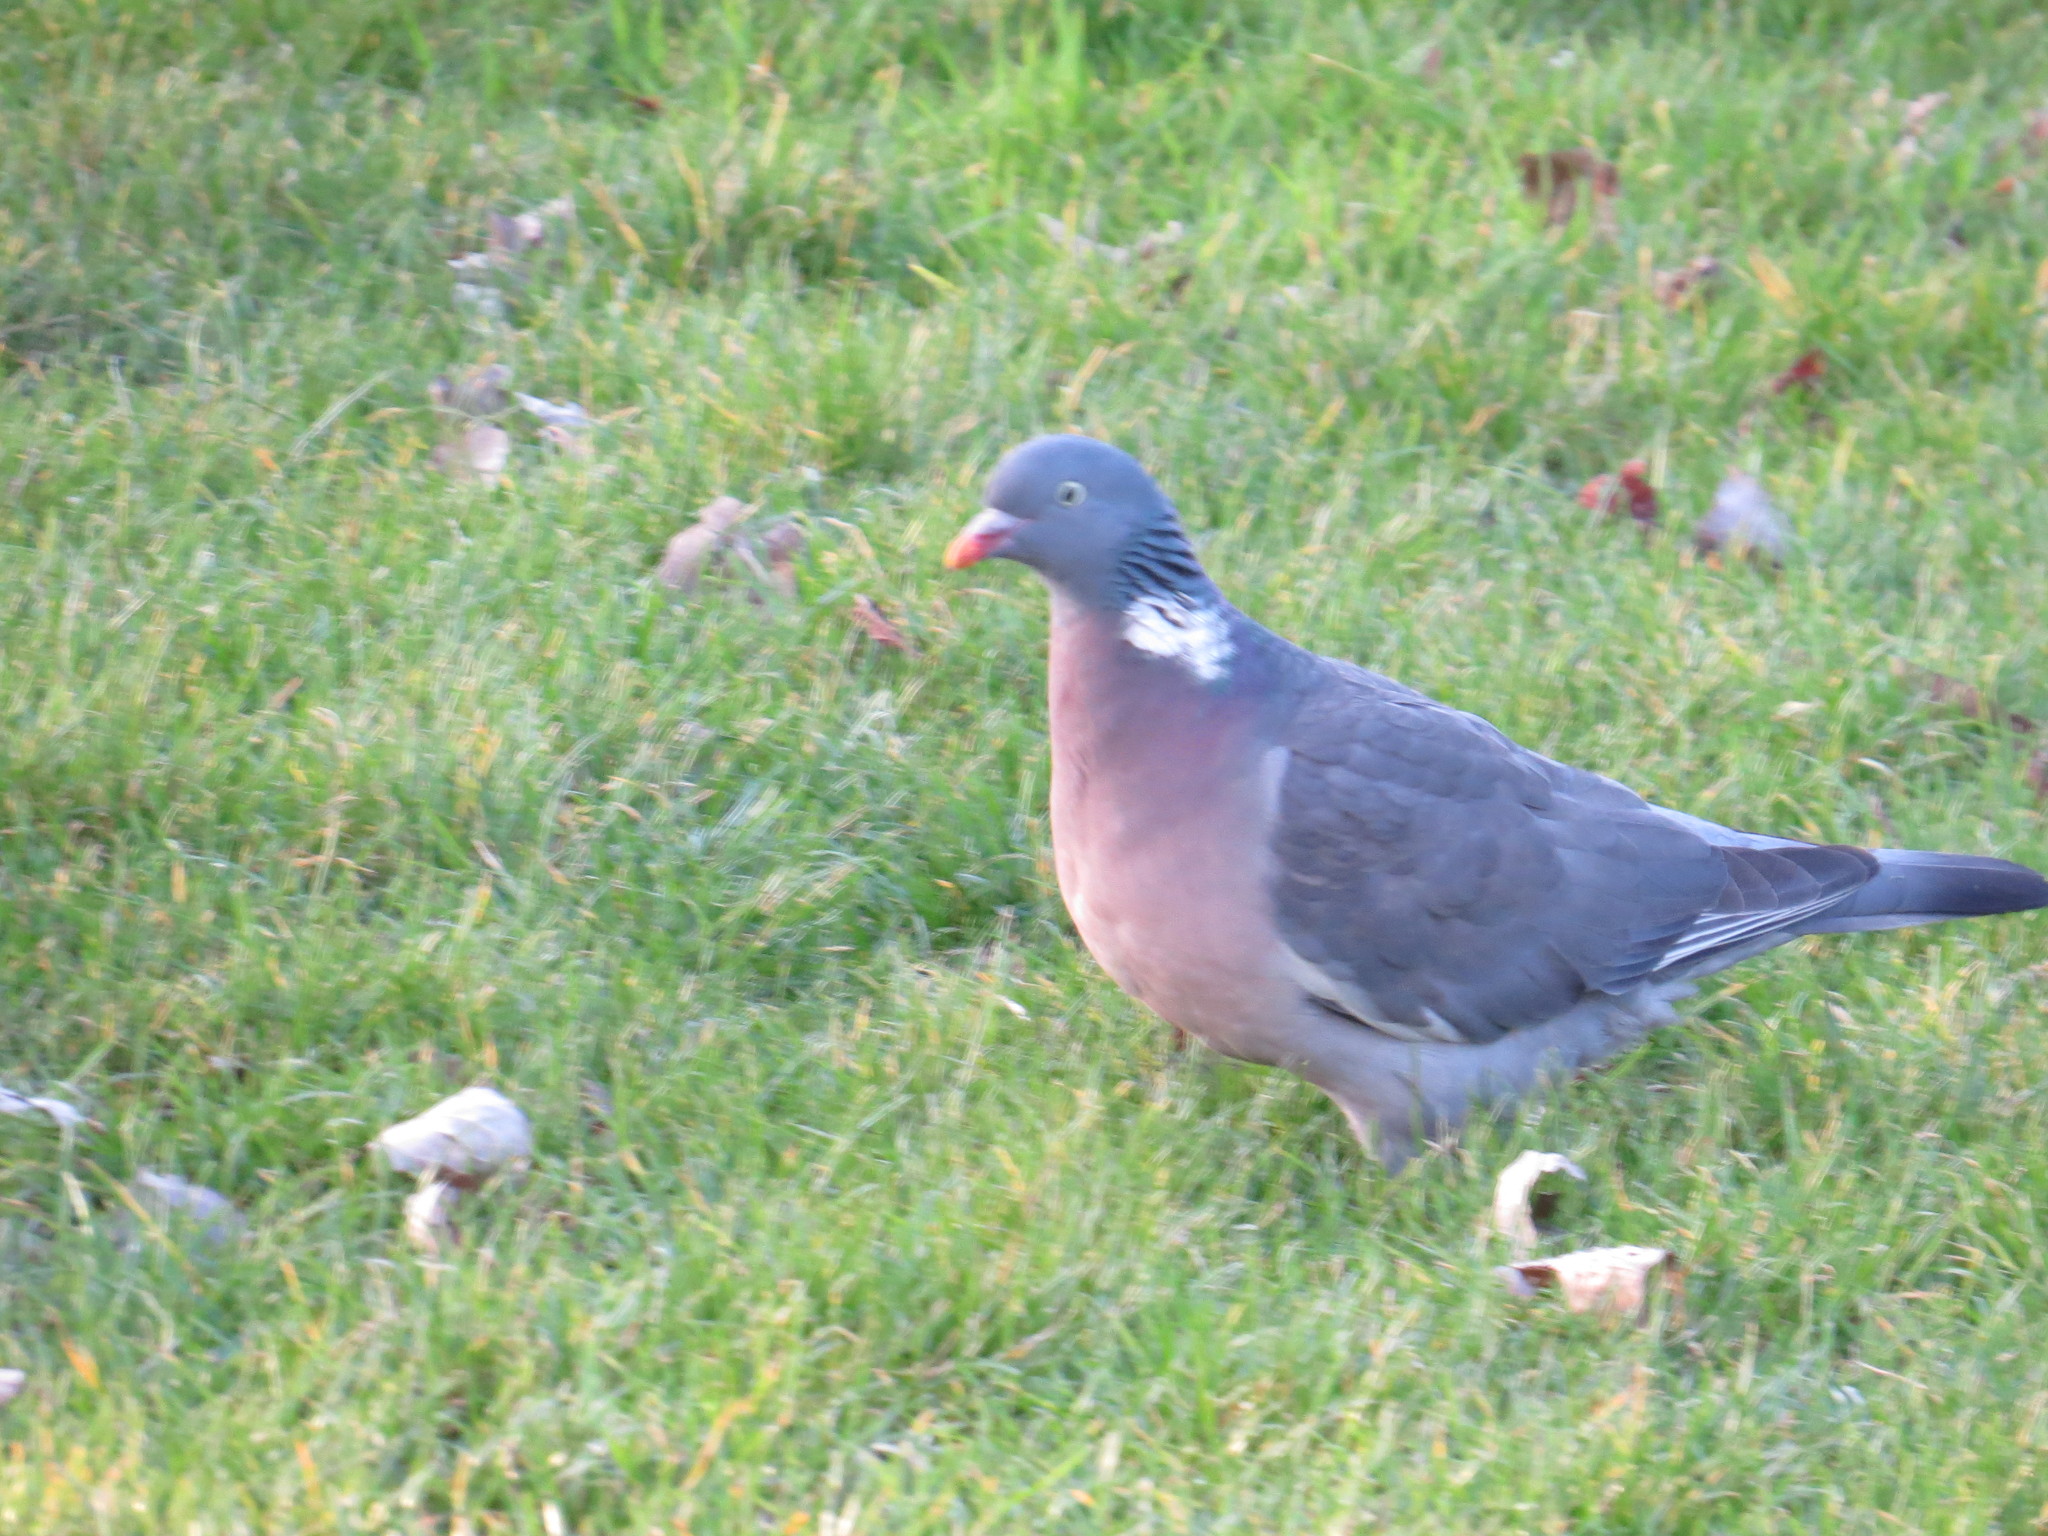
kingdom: Animalia
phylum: Chordata
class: Aves
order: Columbiformes
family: Columbidae
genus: Columba
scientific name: Columba palumbus
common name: Common wood pigeon
